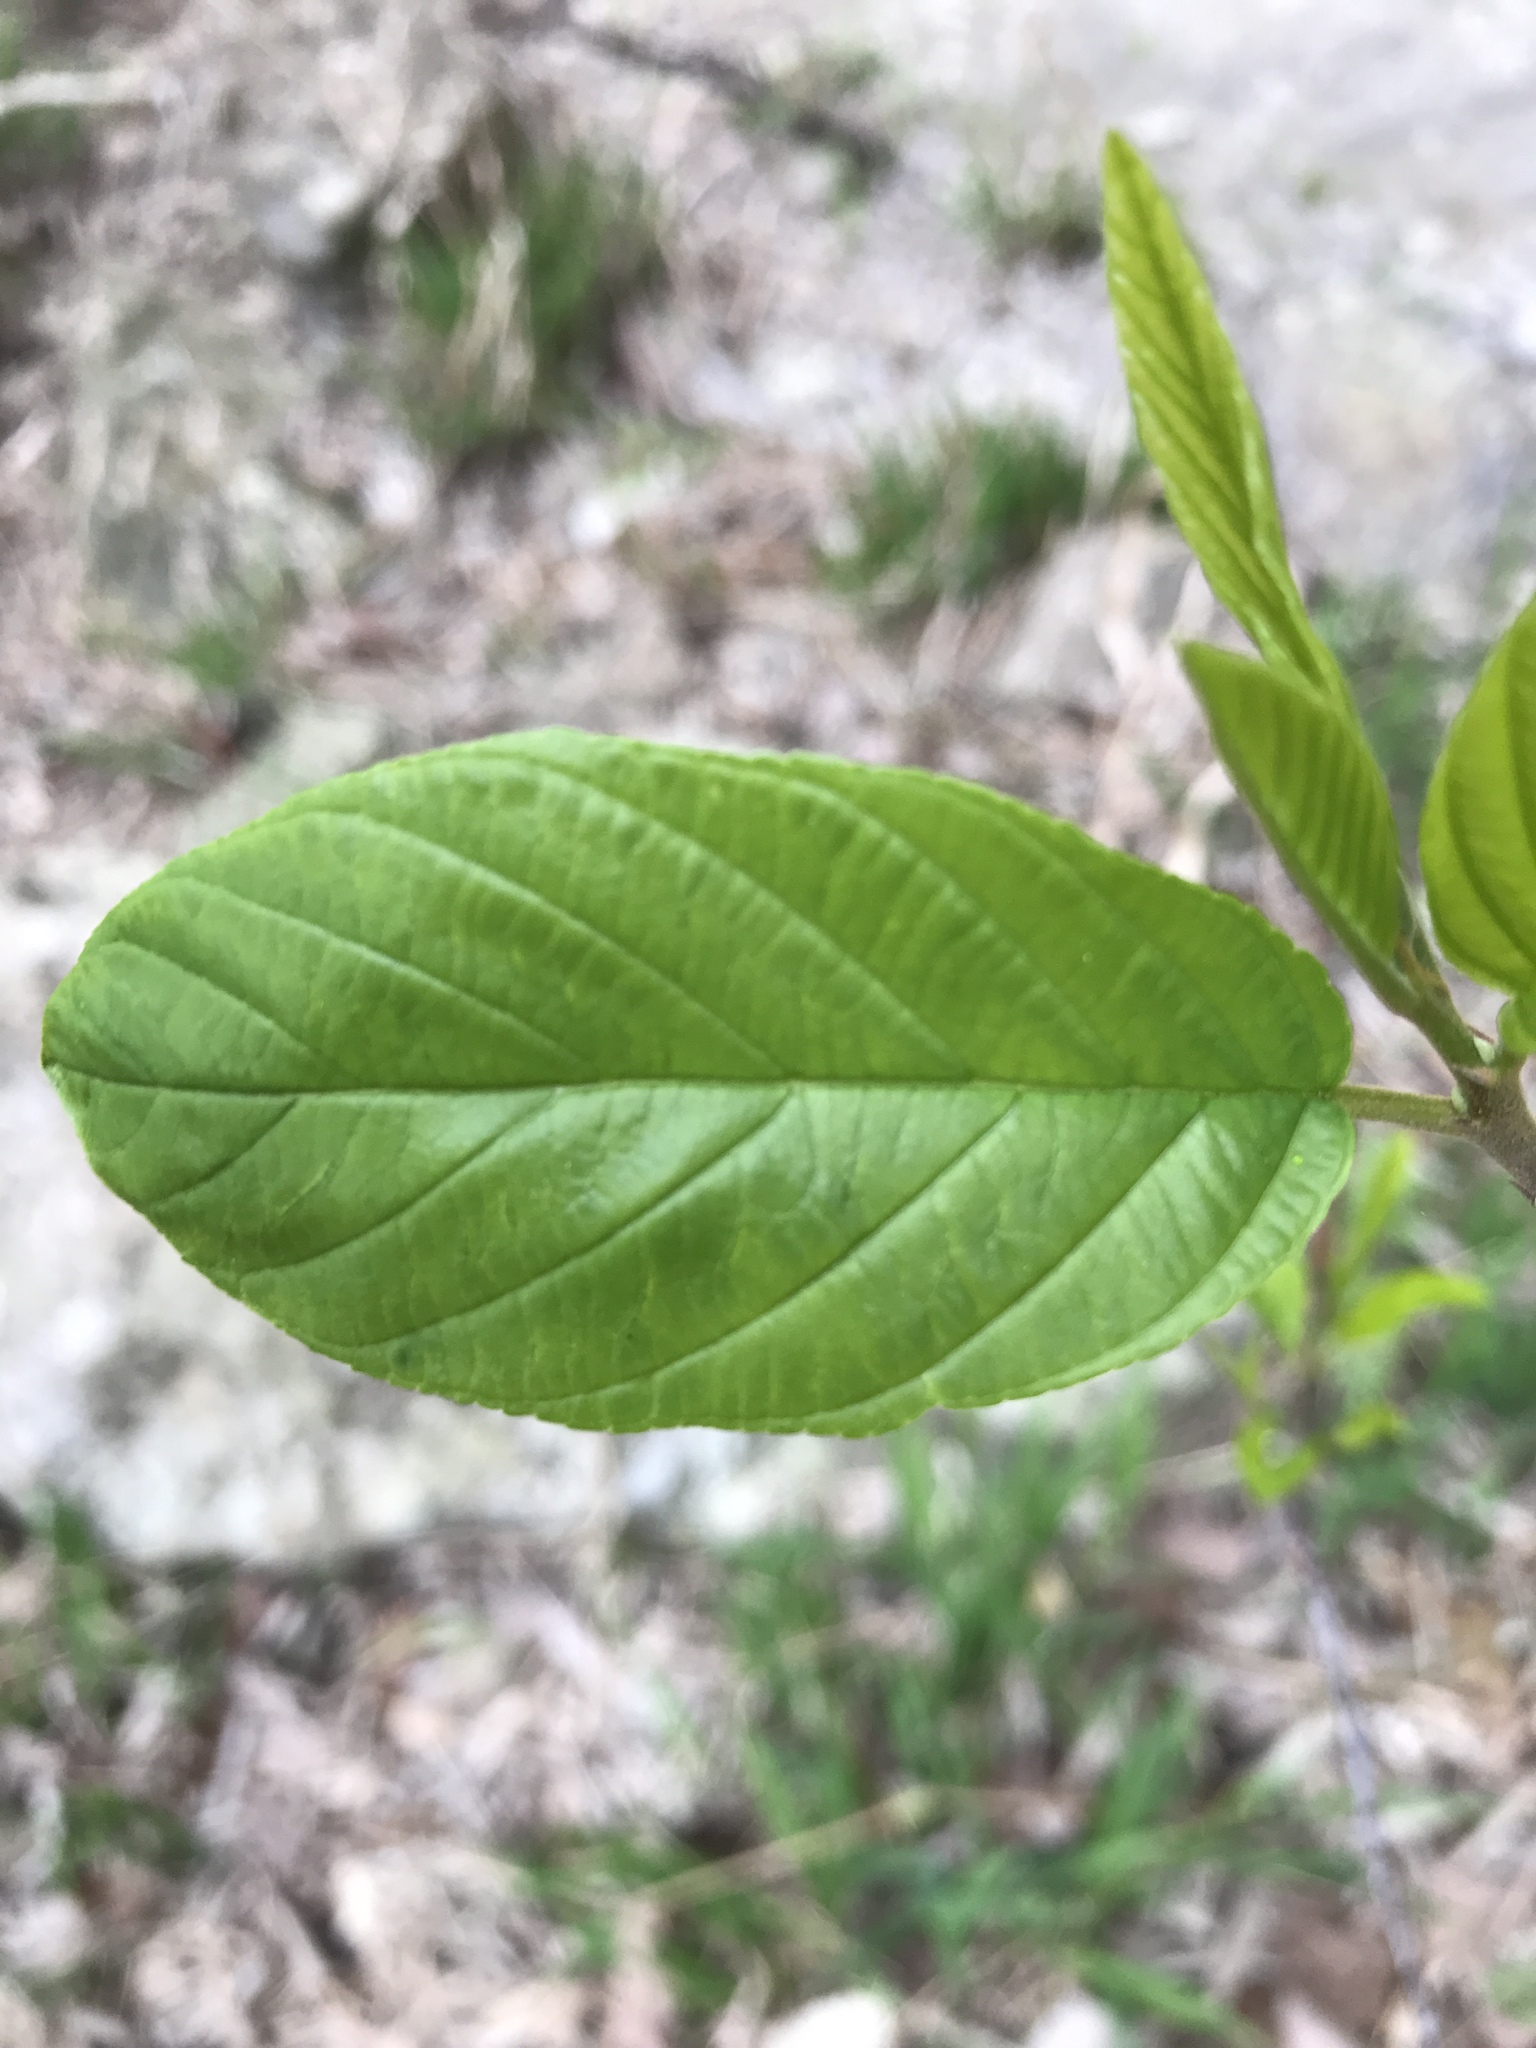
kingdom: Plantae
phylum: Tracheophyta
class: Magnoliopsida
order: Rosales
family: Rhamnaceae
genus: Frangula
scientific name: Frangula caroliniana
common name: Carolina buckthorn
